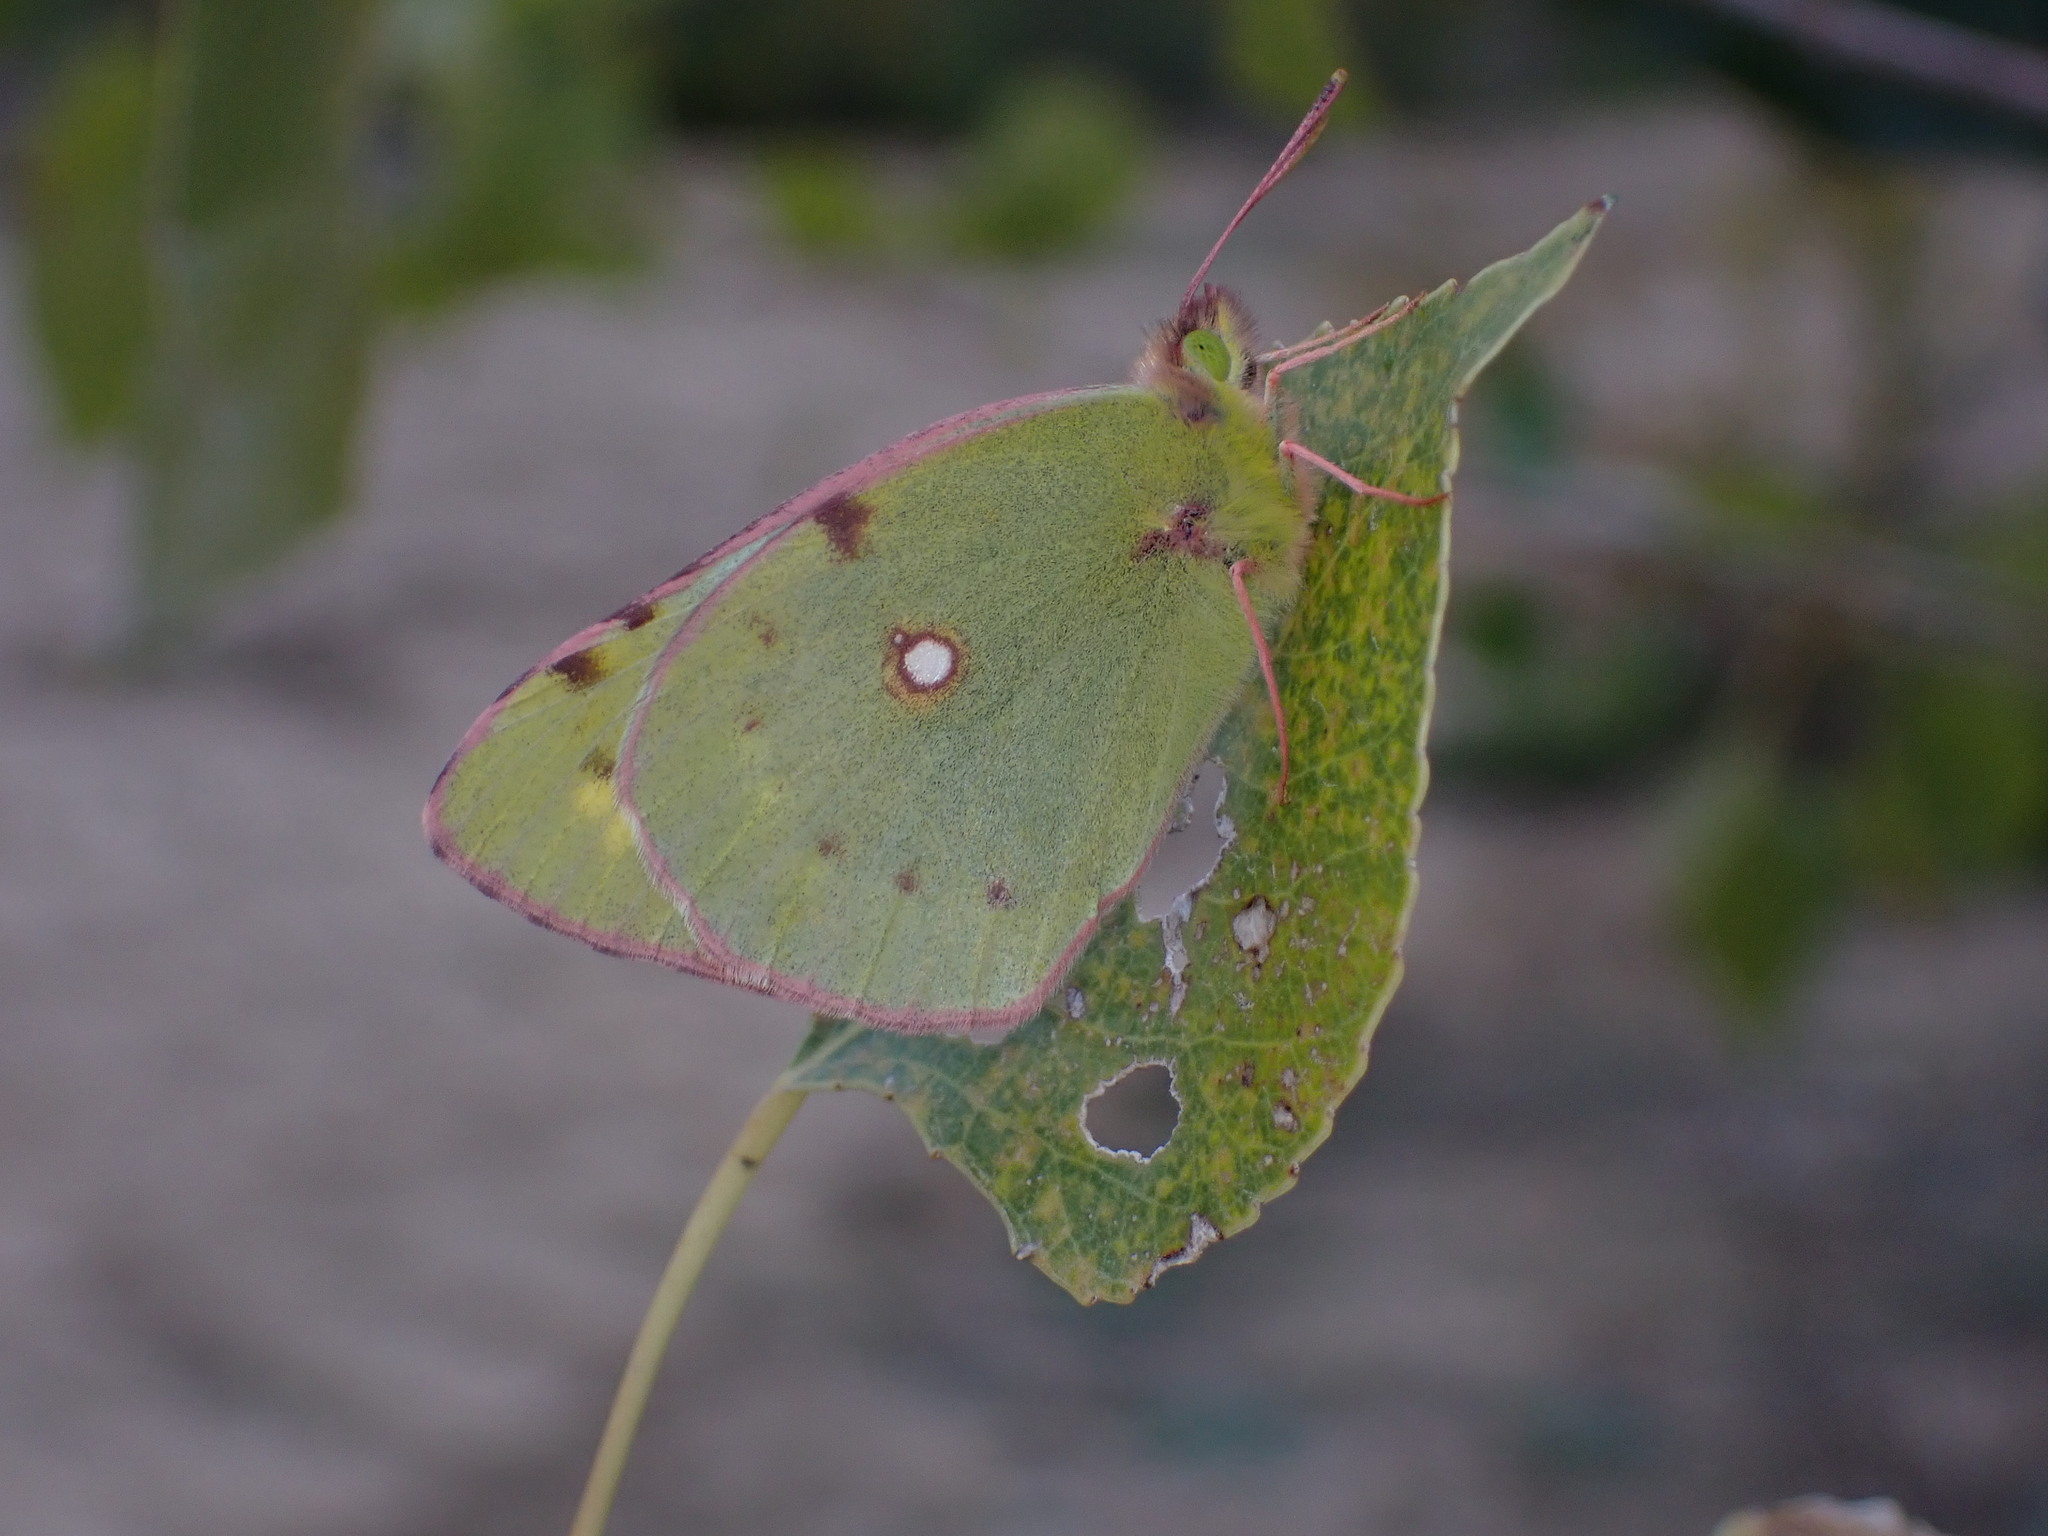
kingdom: Animalia
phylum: Arthropoda
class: Insecta
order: Lepidoptera
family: Pieridae
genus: Colias
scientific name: Colias croceus
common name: Clouded yellow
